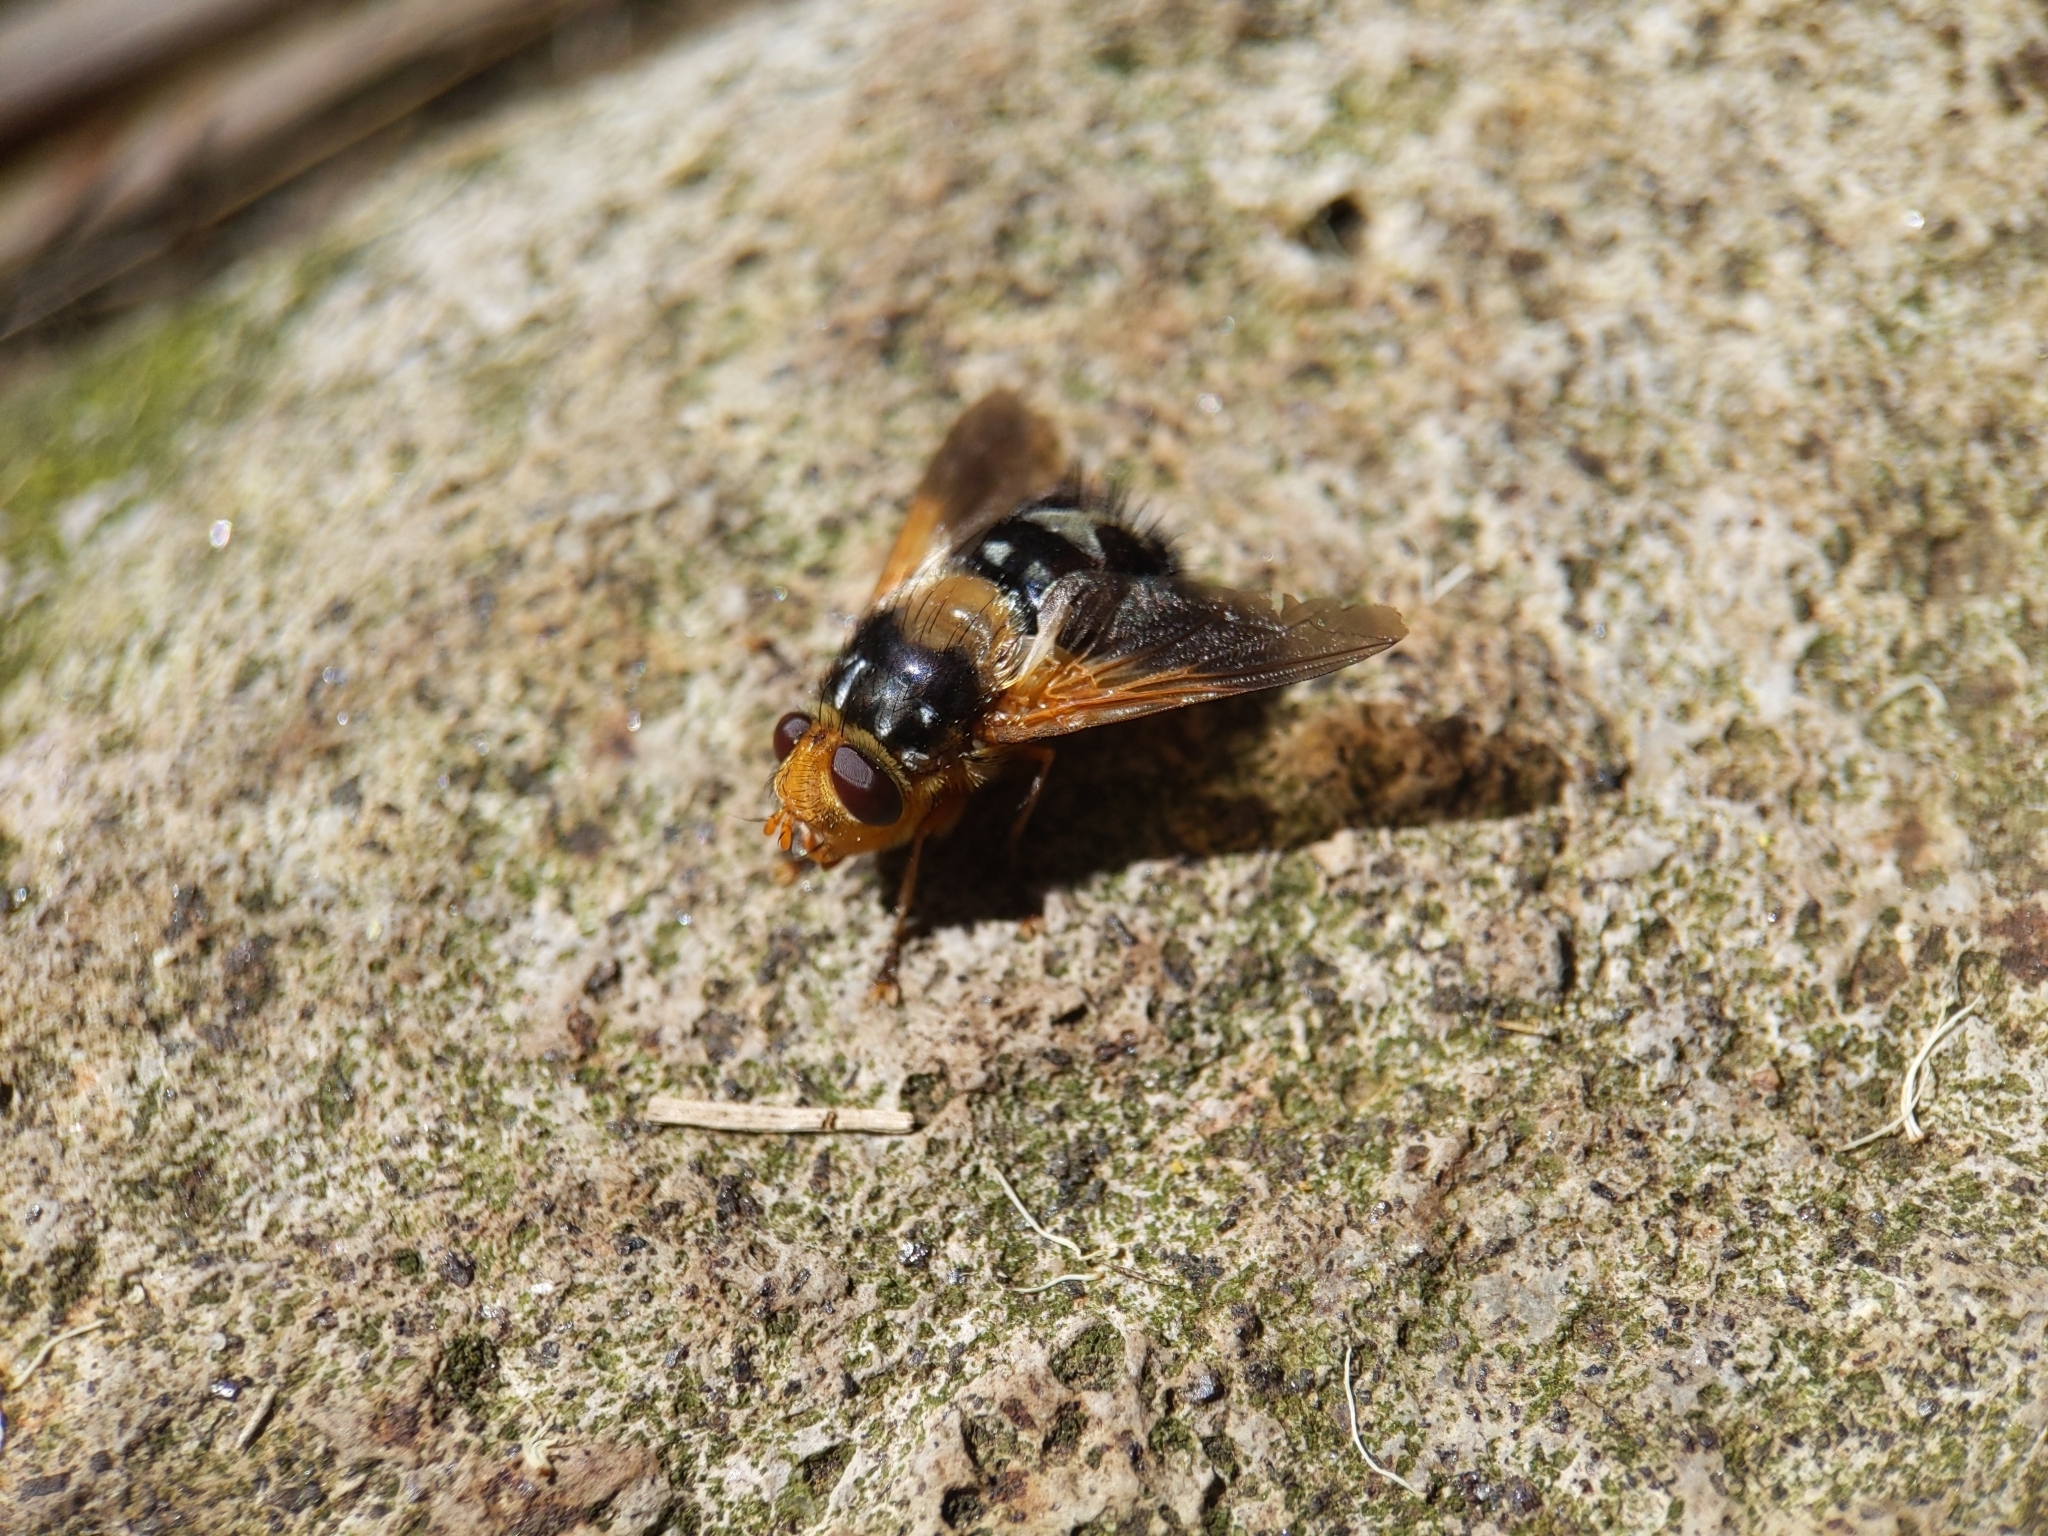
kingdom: Animalia
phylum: Arthropoda
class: Insecta
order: Diptera
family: Tachinidae
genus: Microtropesa
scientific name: Microtropesa sinuata
